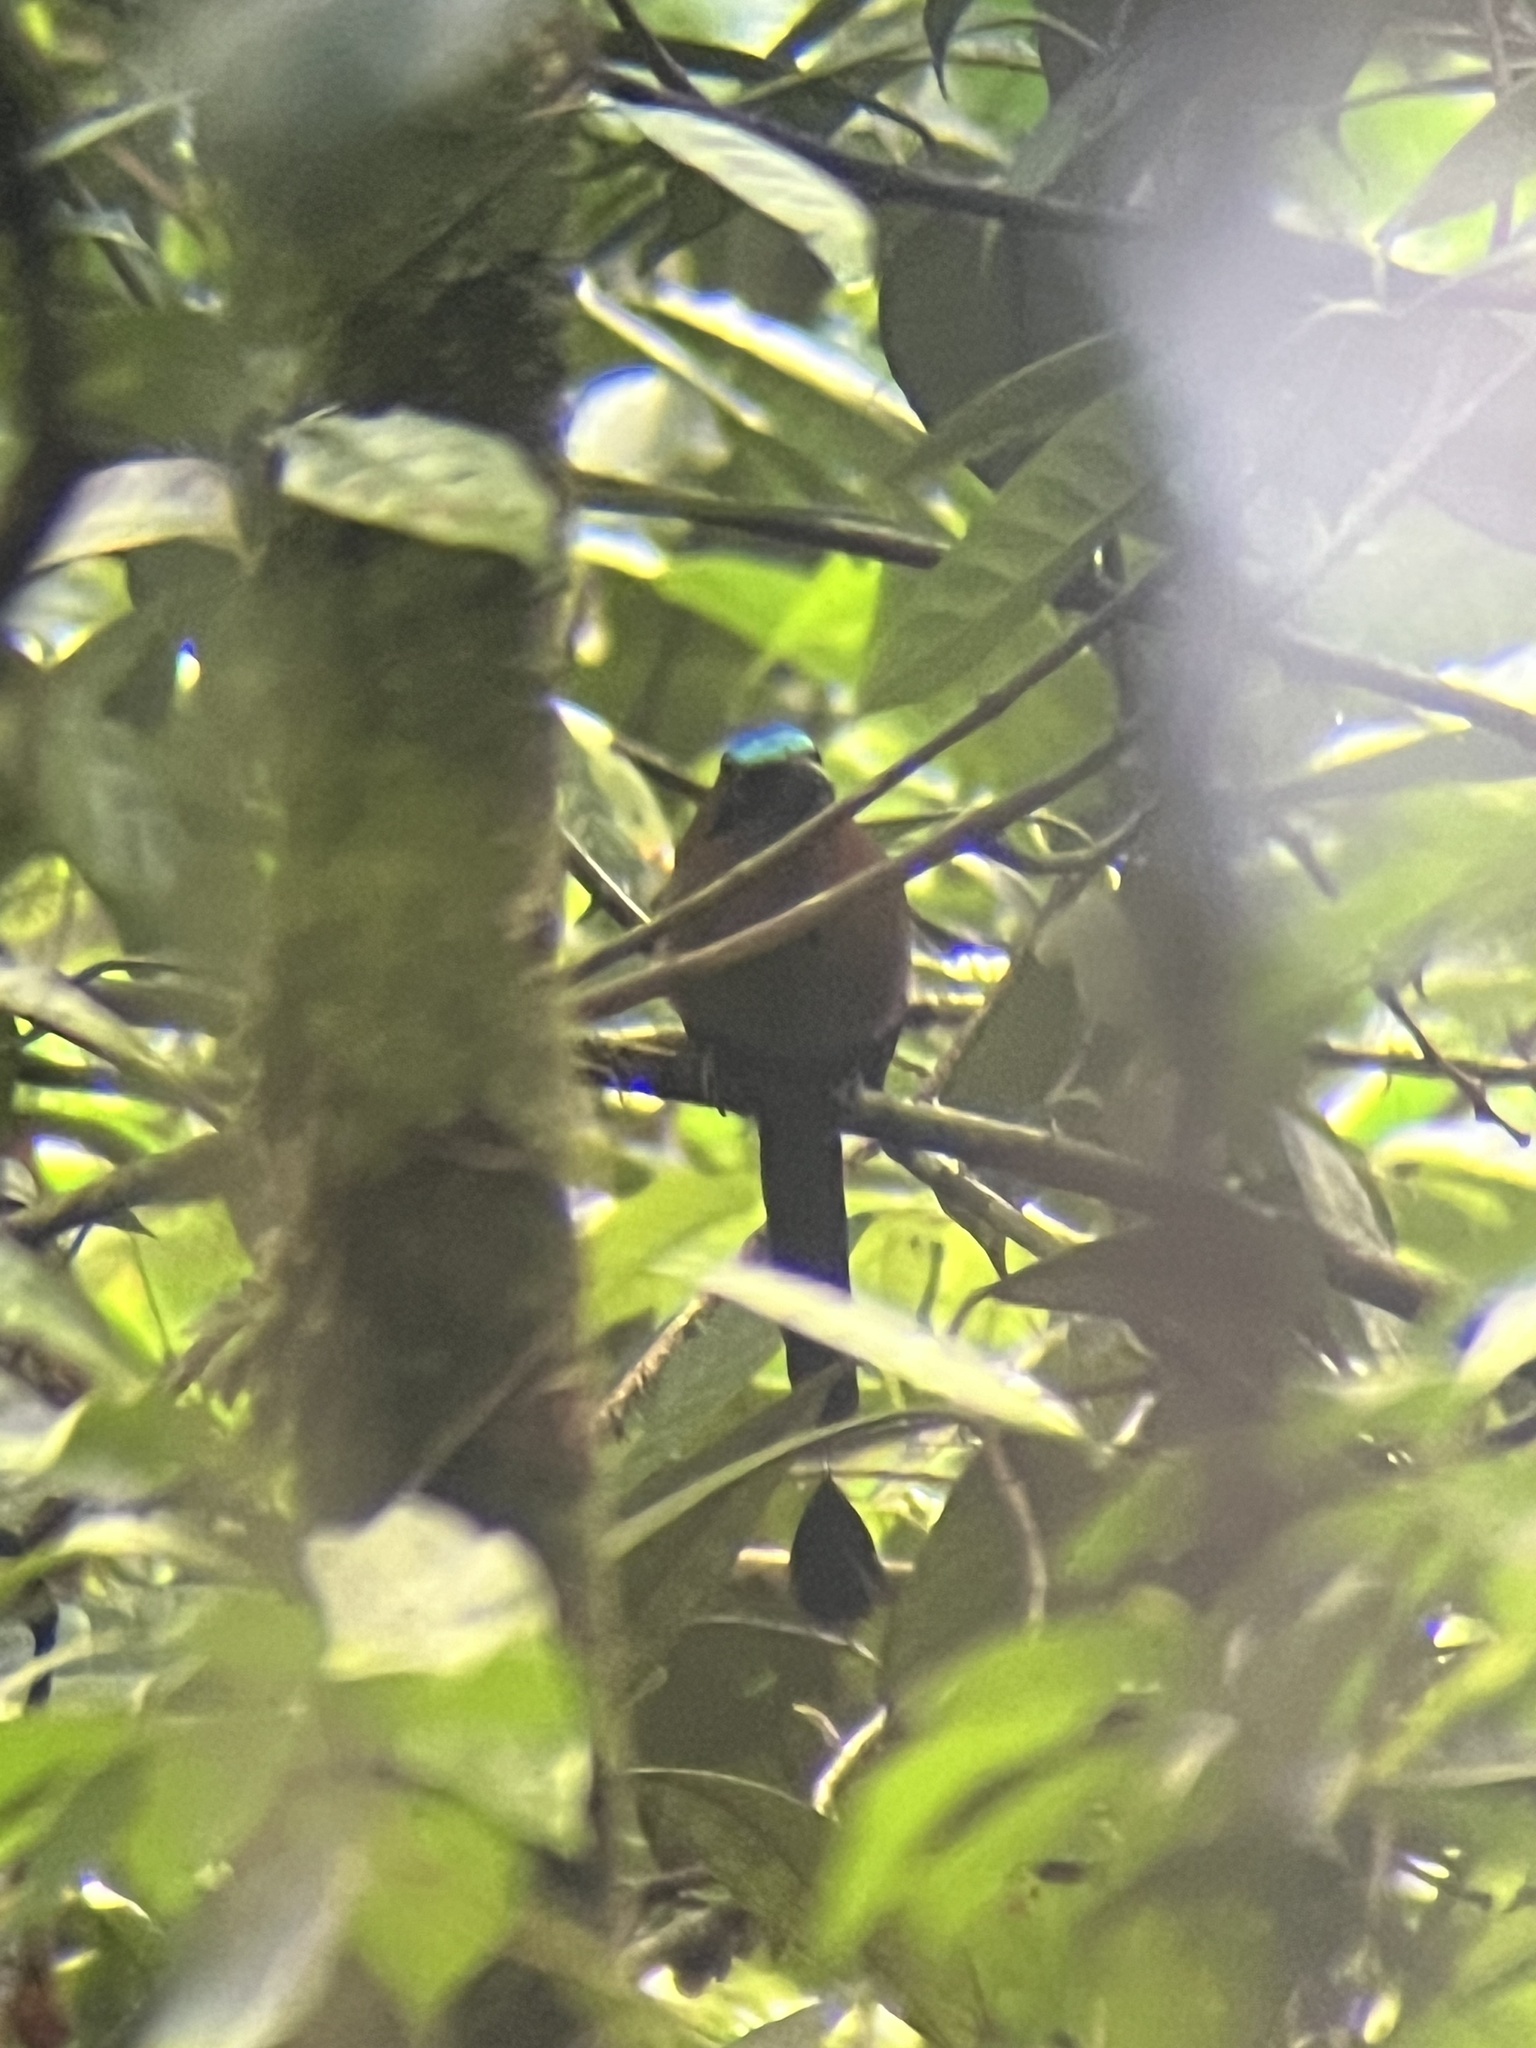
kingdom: Animalia
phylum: Chordata
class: Aves
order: Coraciiformes
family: Momotidae
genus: Momotus
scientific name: Momotus momota
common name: Amazonian motmot
